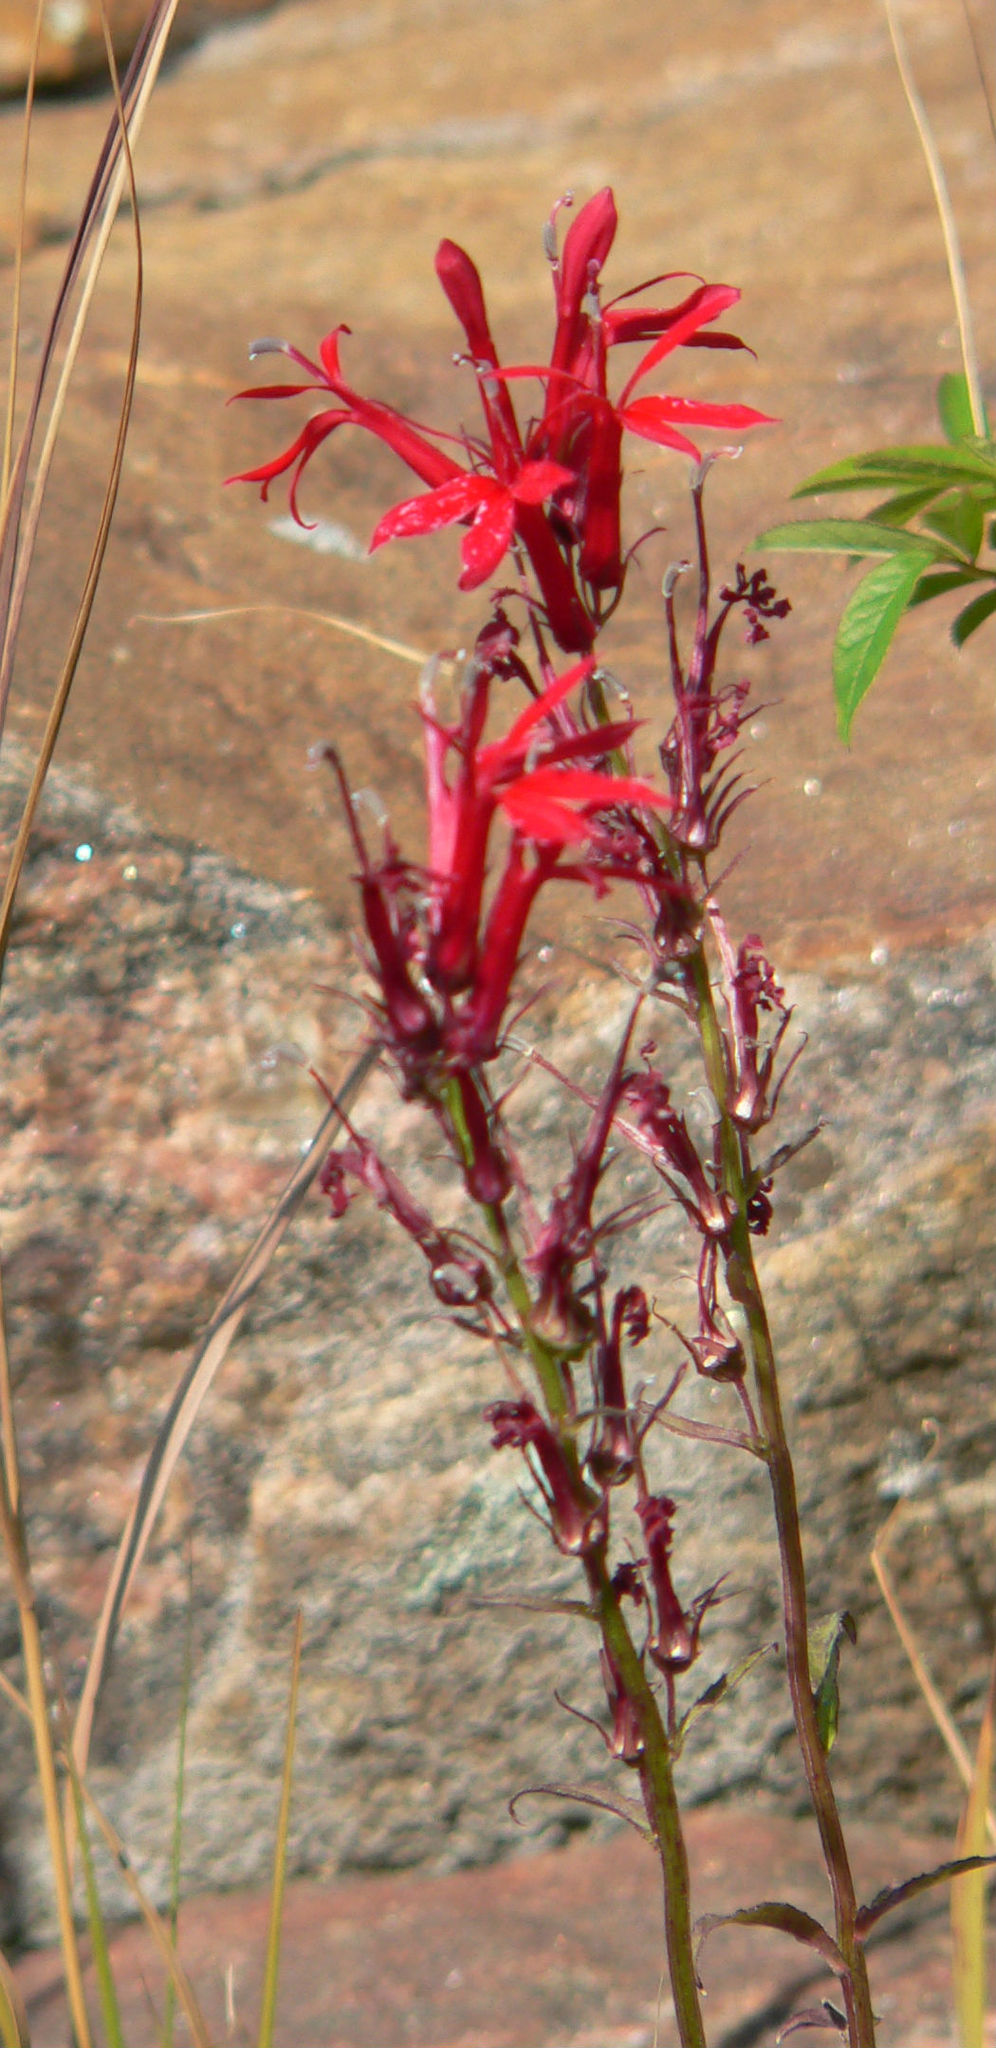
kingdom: Plantae
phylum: Tracheophyta
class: Magnoliopsida
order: Asterales
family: Campanulaceae
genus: Lobelia
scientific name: Lobelia cardinalis
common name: Cardinal flower
